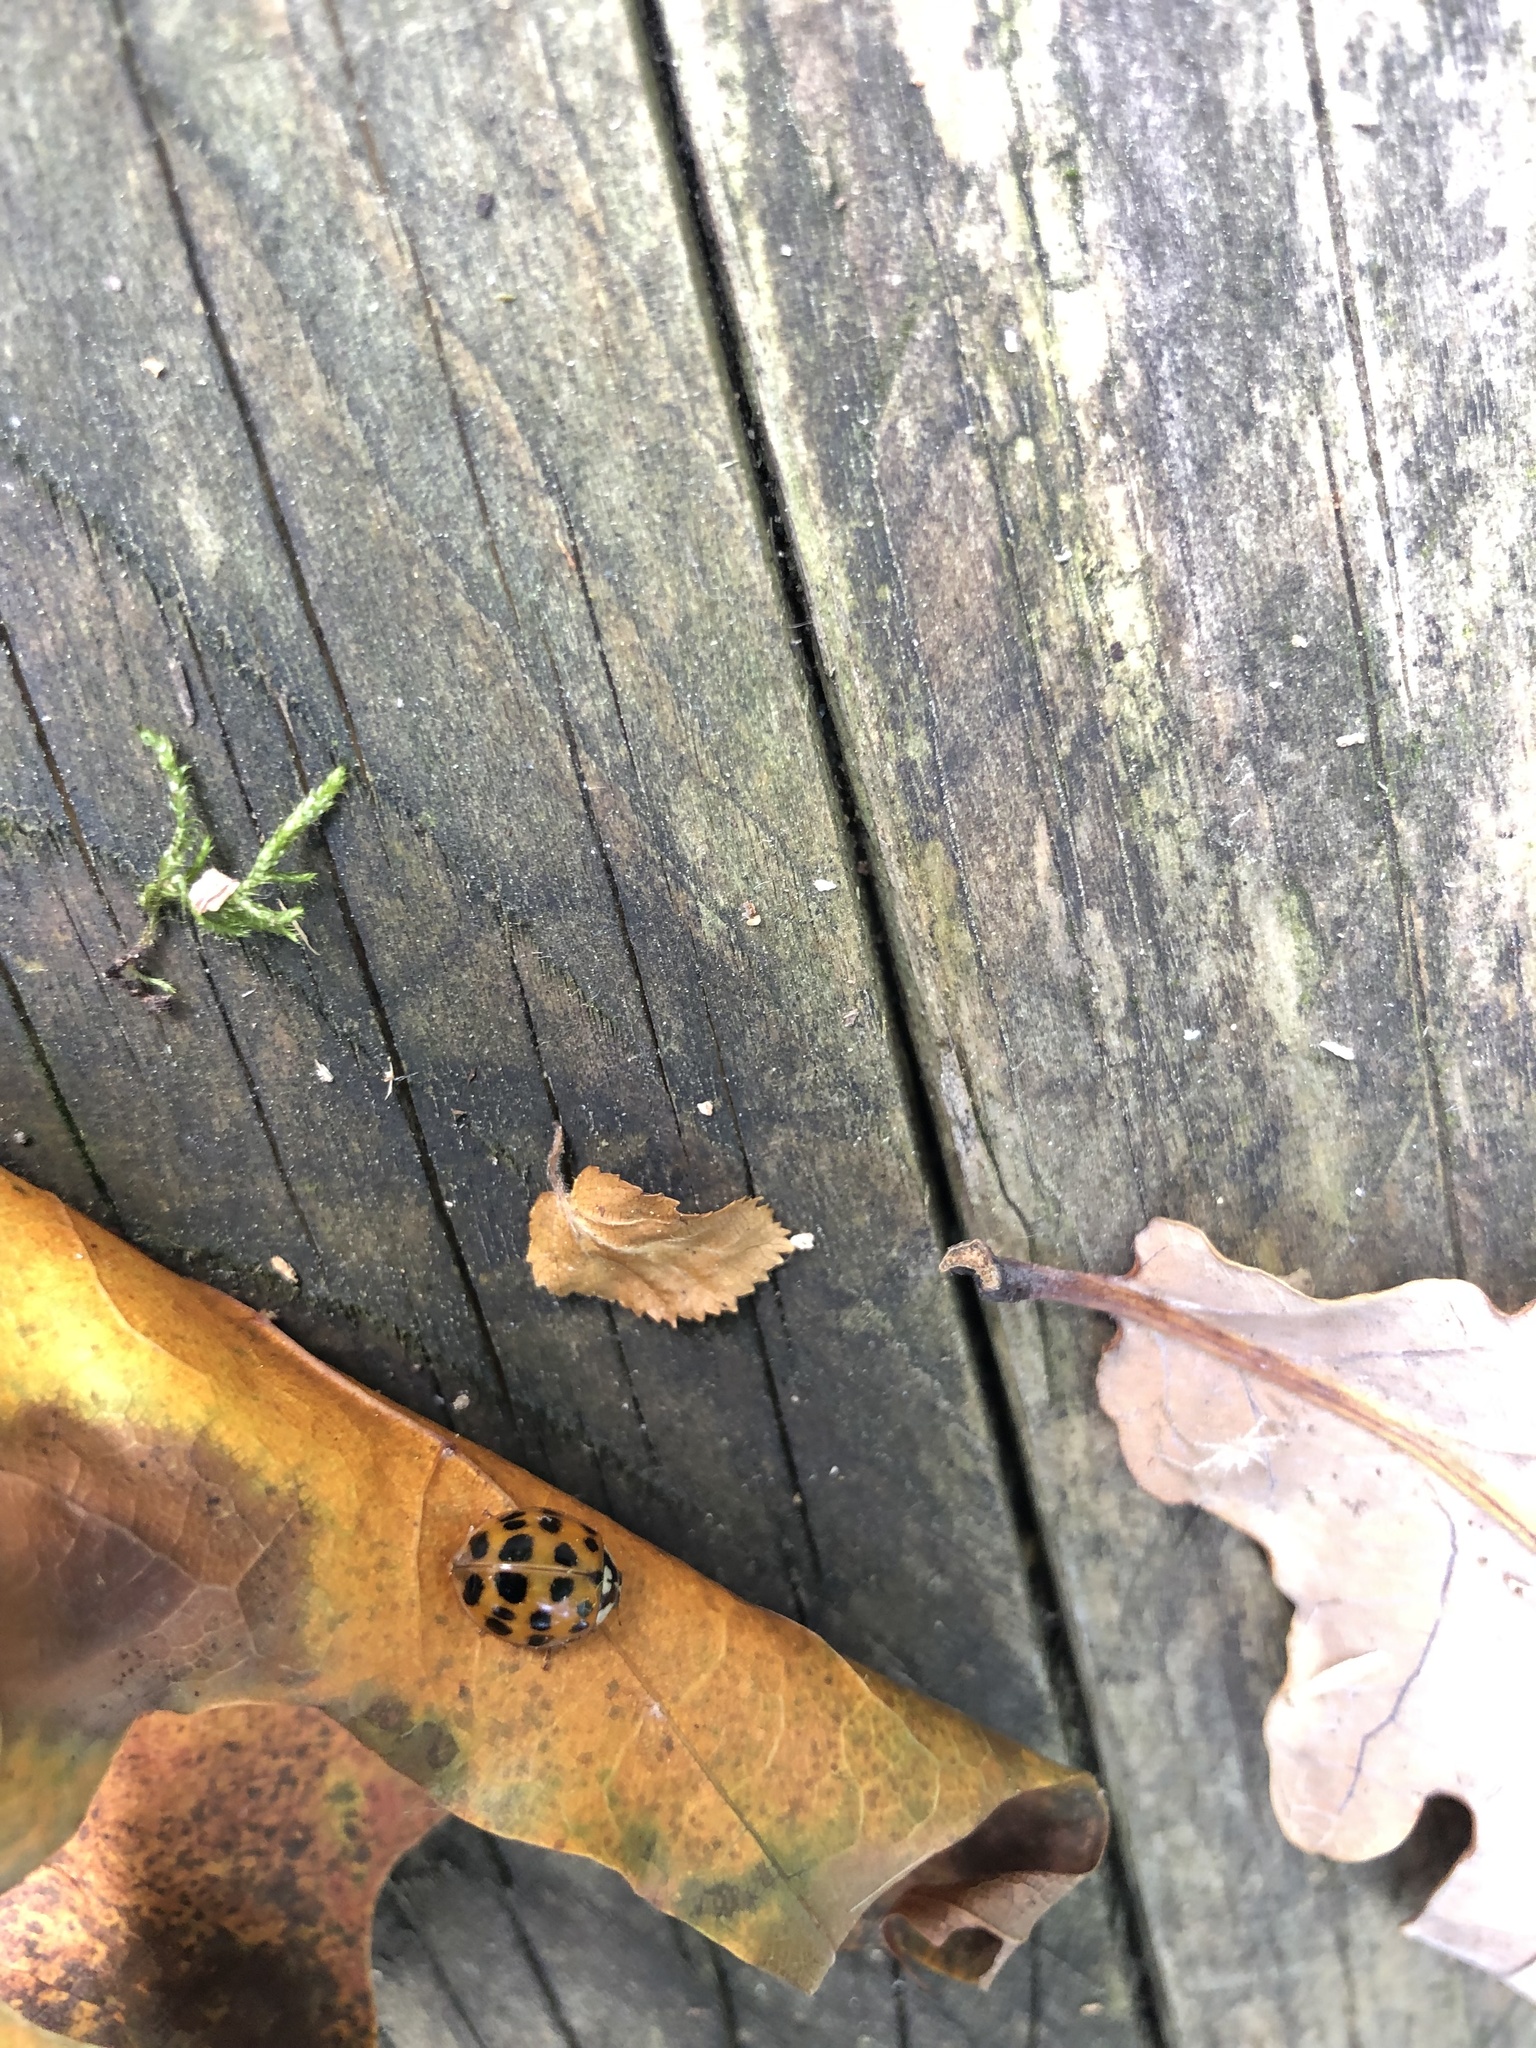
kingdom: Animalia
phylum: Arthropoda
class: Insecta
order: Coleoptera
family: Coccinellidae
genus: Harmonia
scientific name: Harmonia axyridis
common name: Harlequin ladybird
